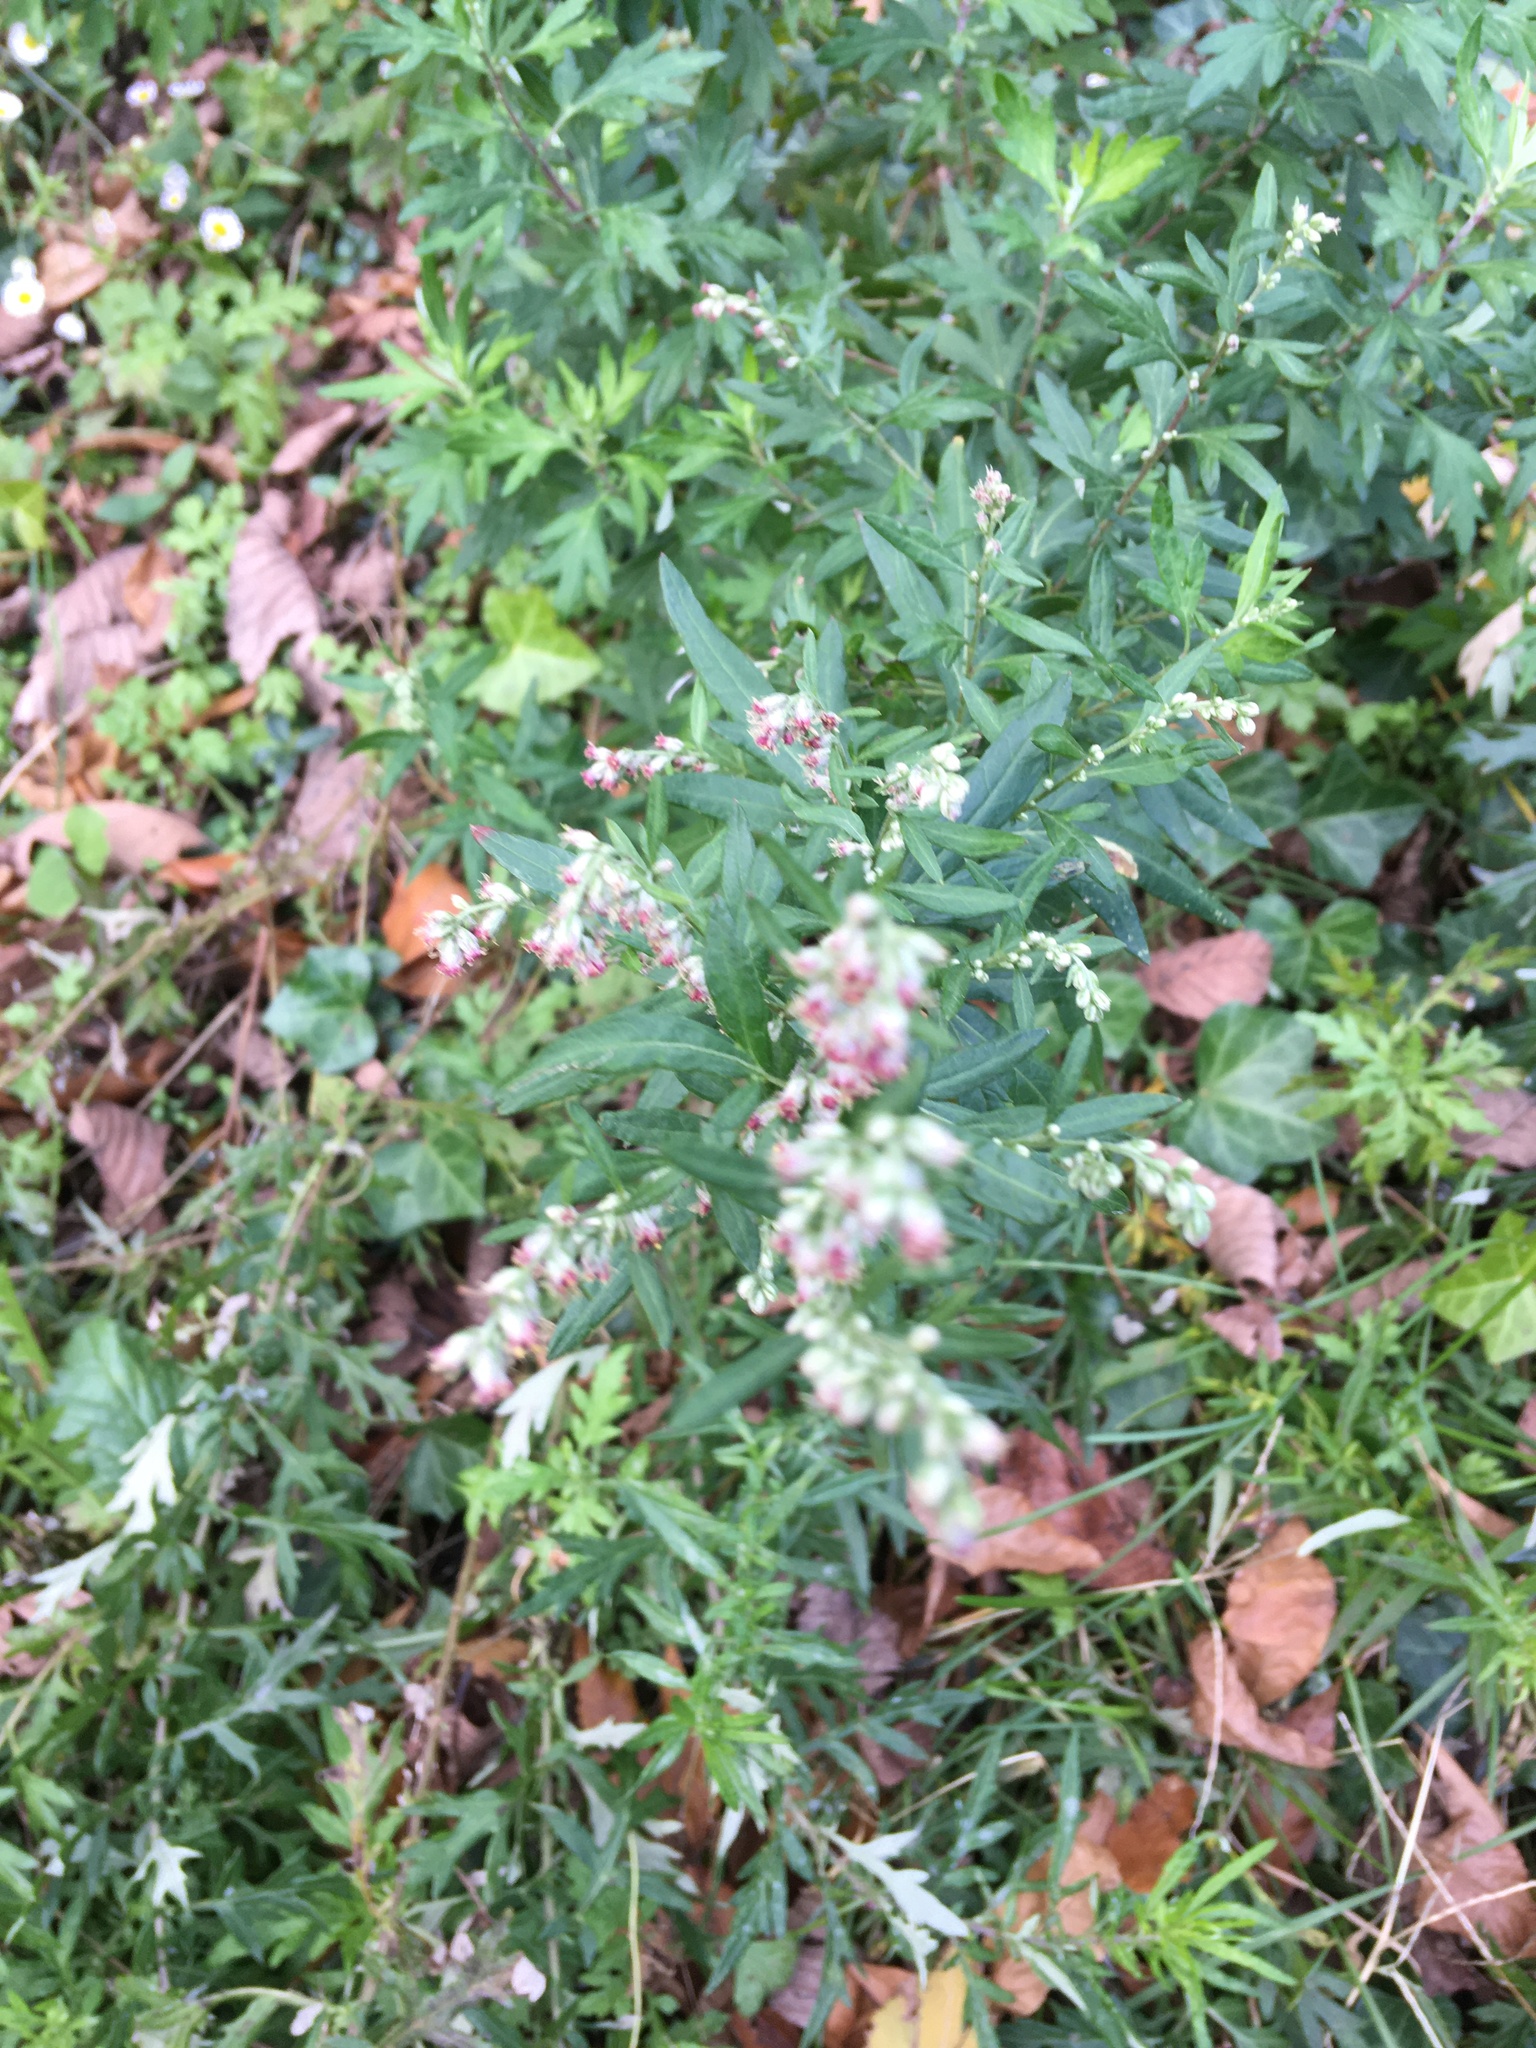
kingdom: Plantae
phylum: Tracheophyta
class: Magnoliopsida
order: Asterales
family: Asteraceae
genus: Artemisia
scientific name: Artemisia vulgaris
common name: Mugwort
